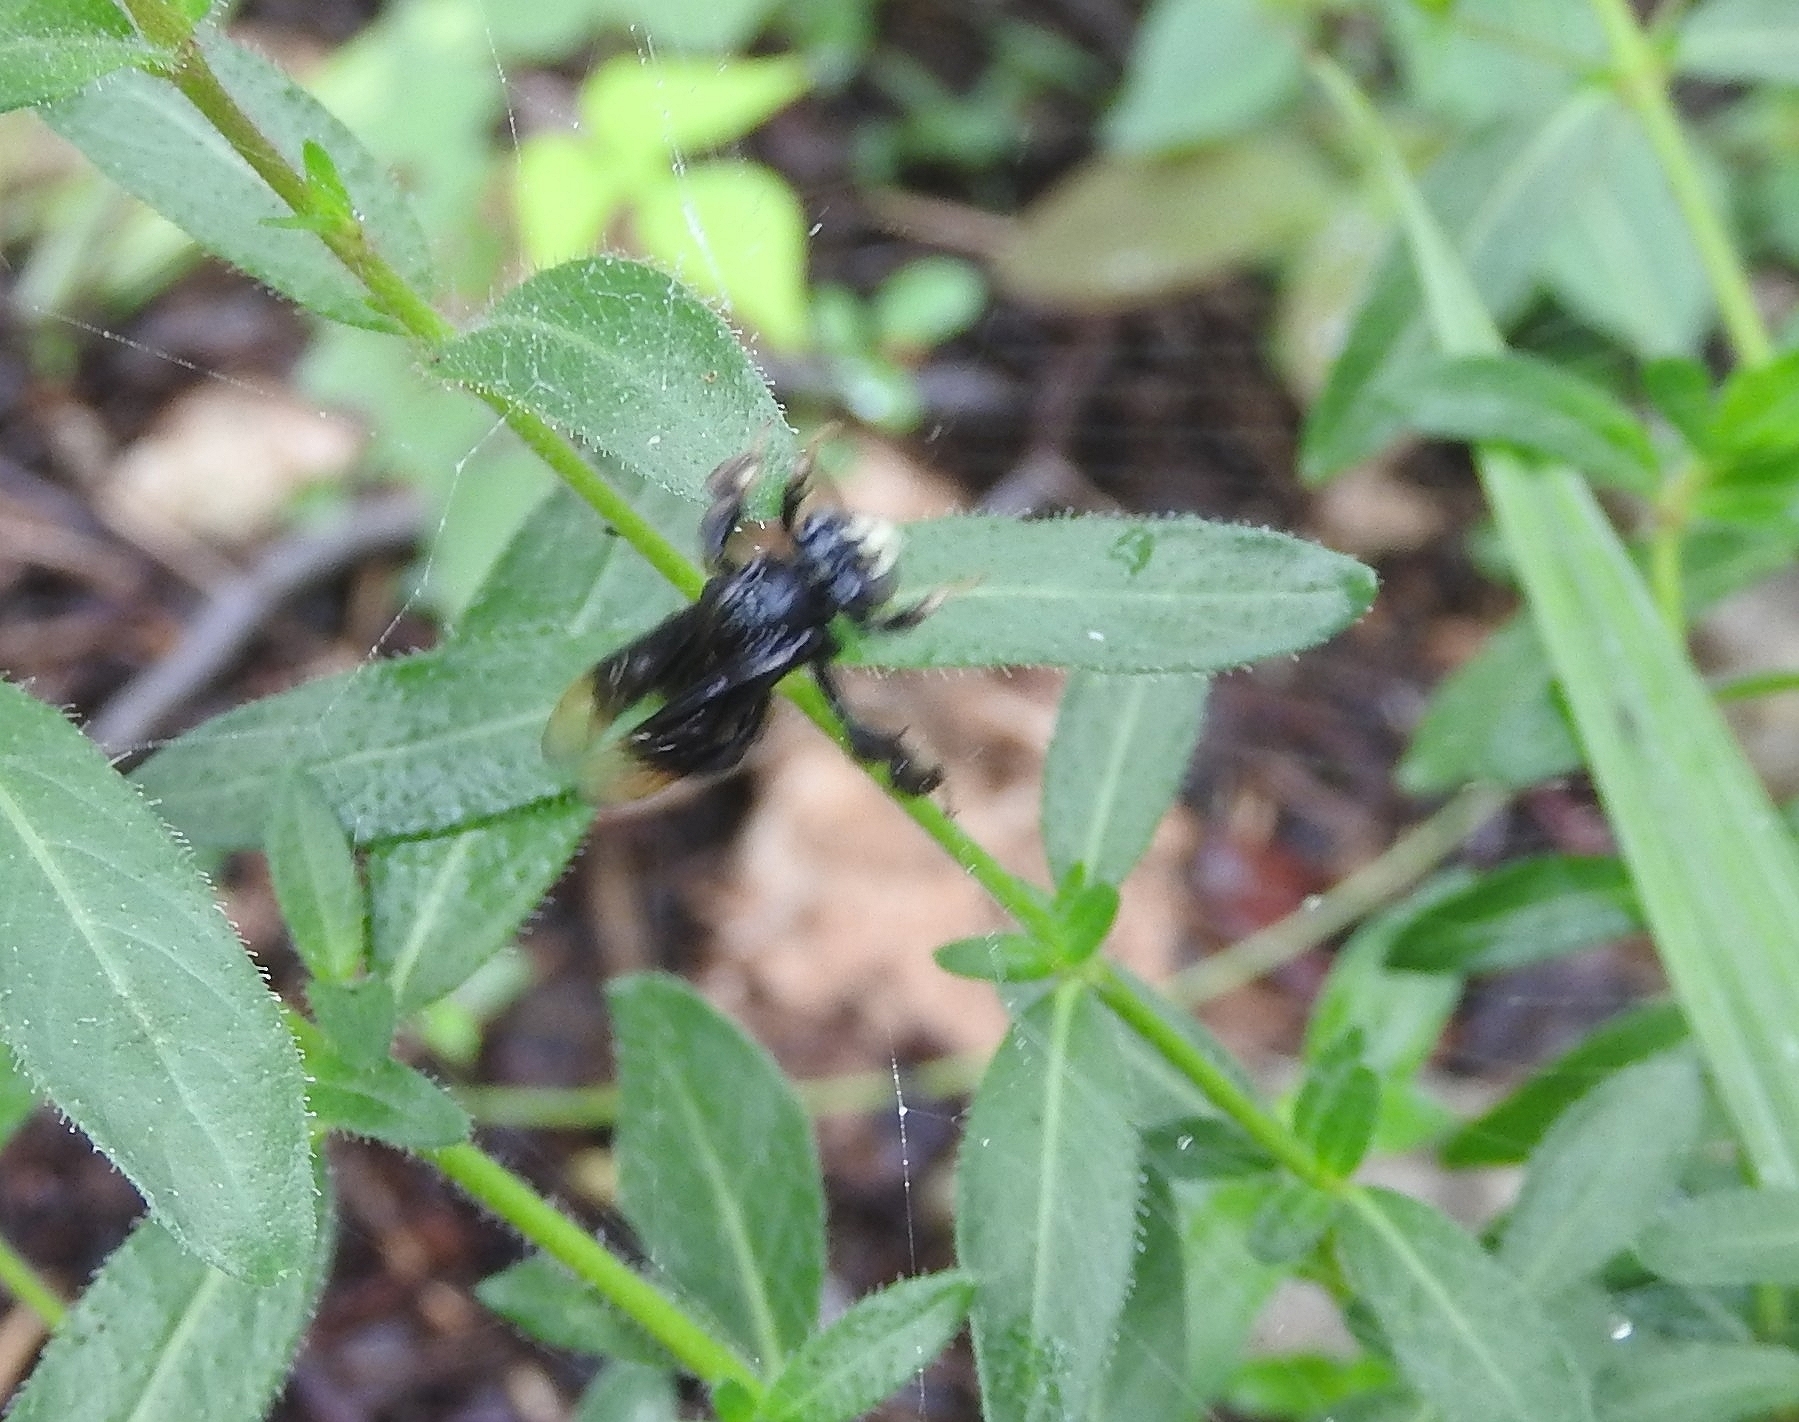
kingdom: Animalia
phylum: Arthropoda
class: Insecta
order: Hymenoptera
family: Apidae
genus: Paratetrapedia
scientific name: Paratetrapedia moesta
